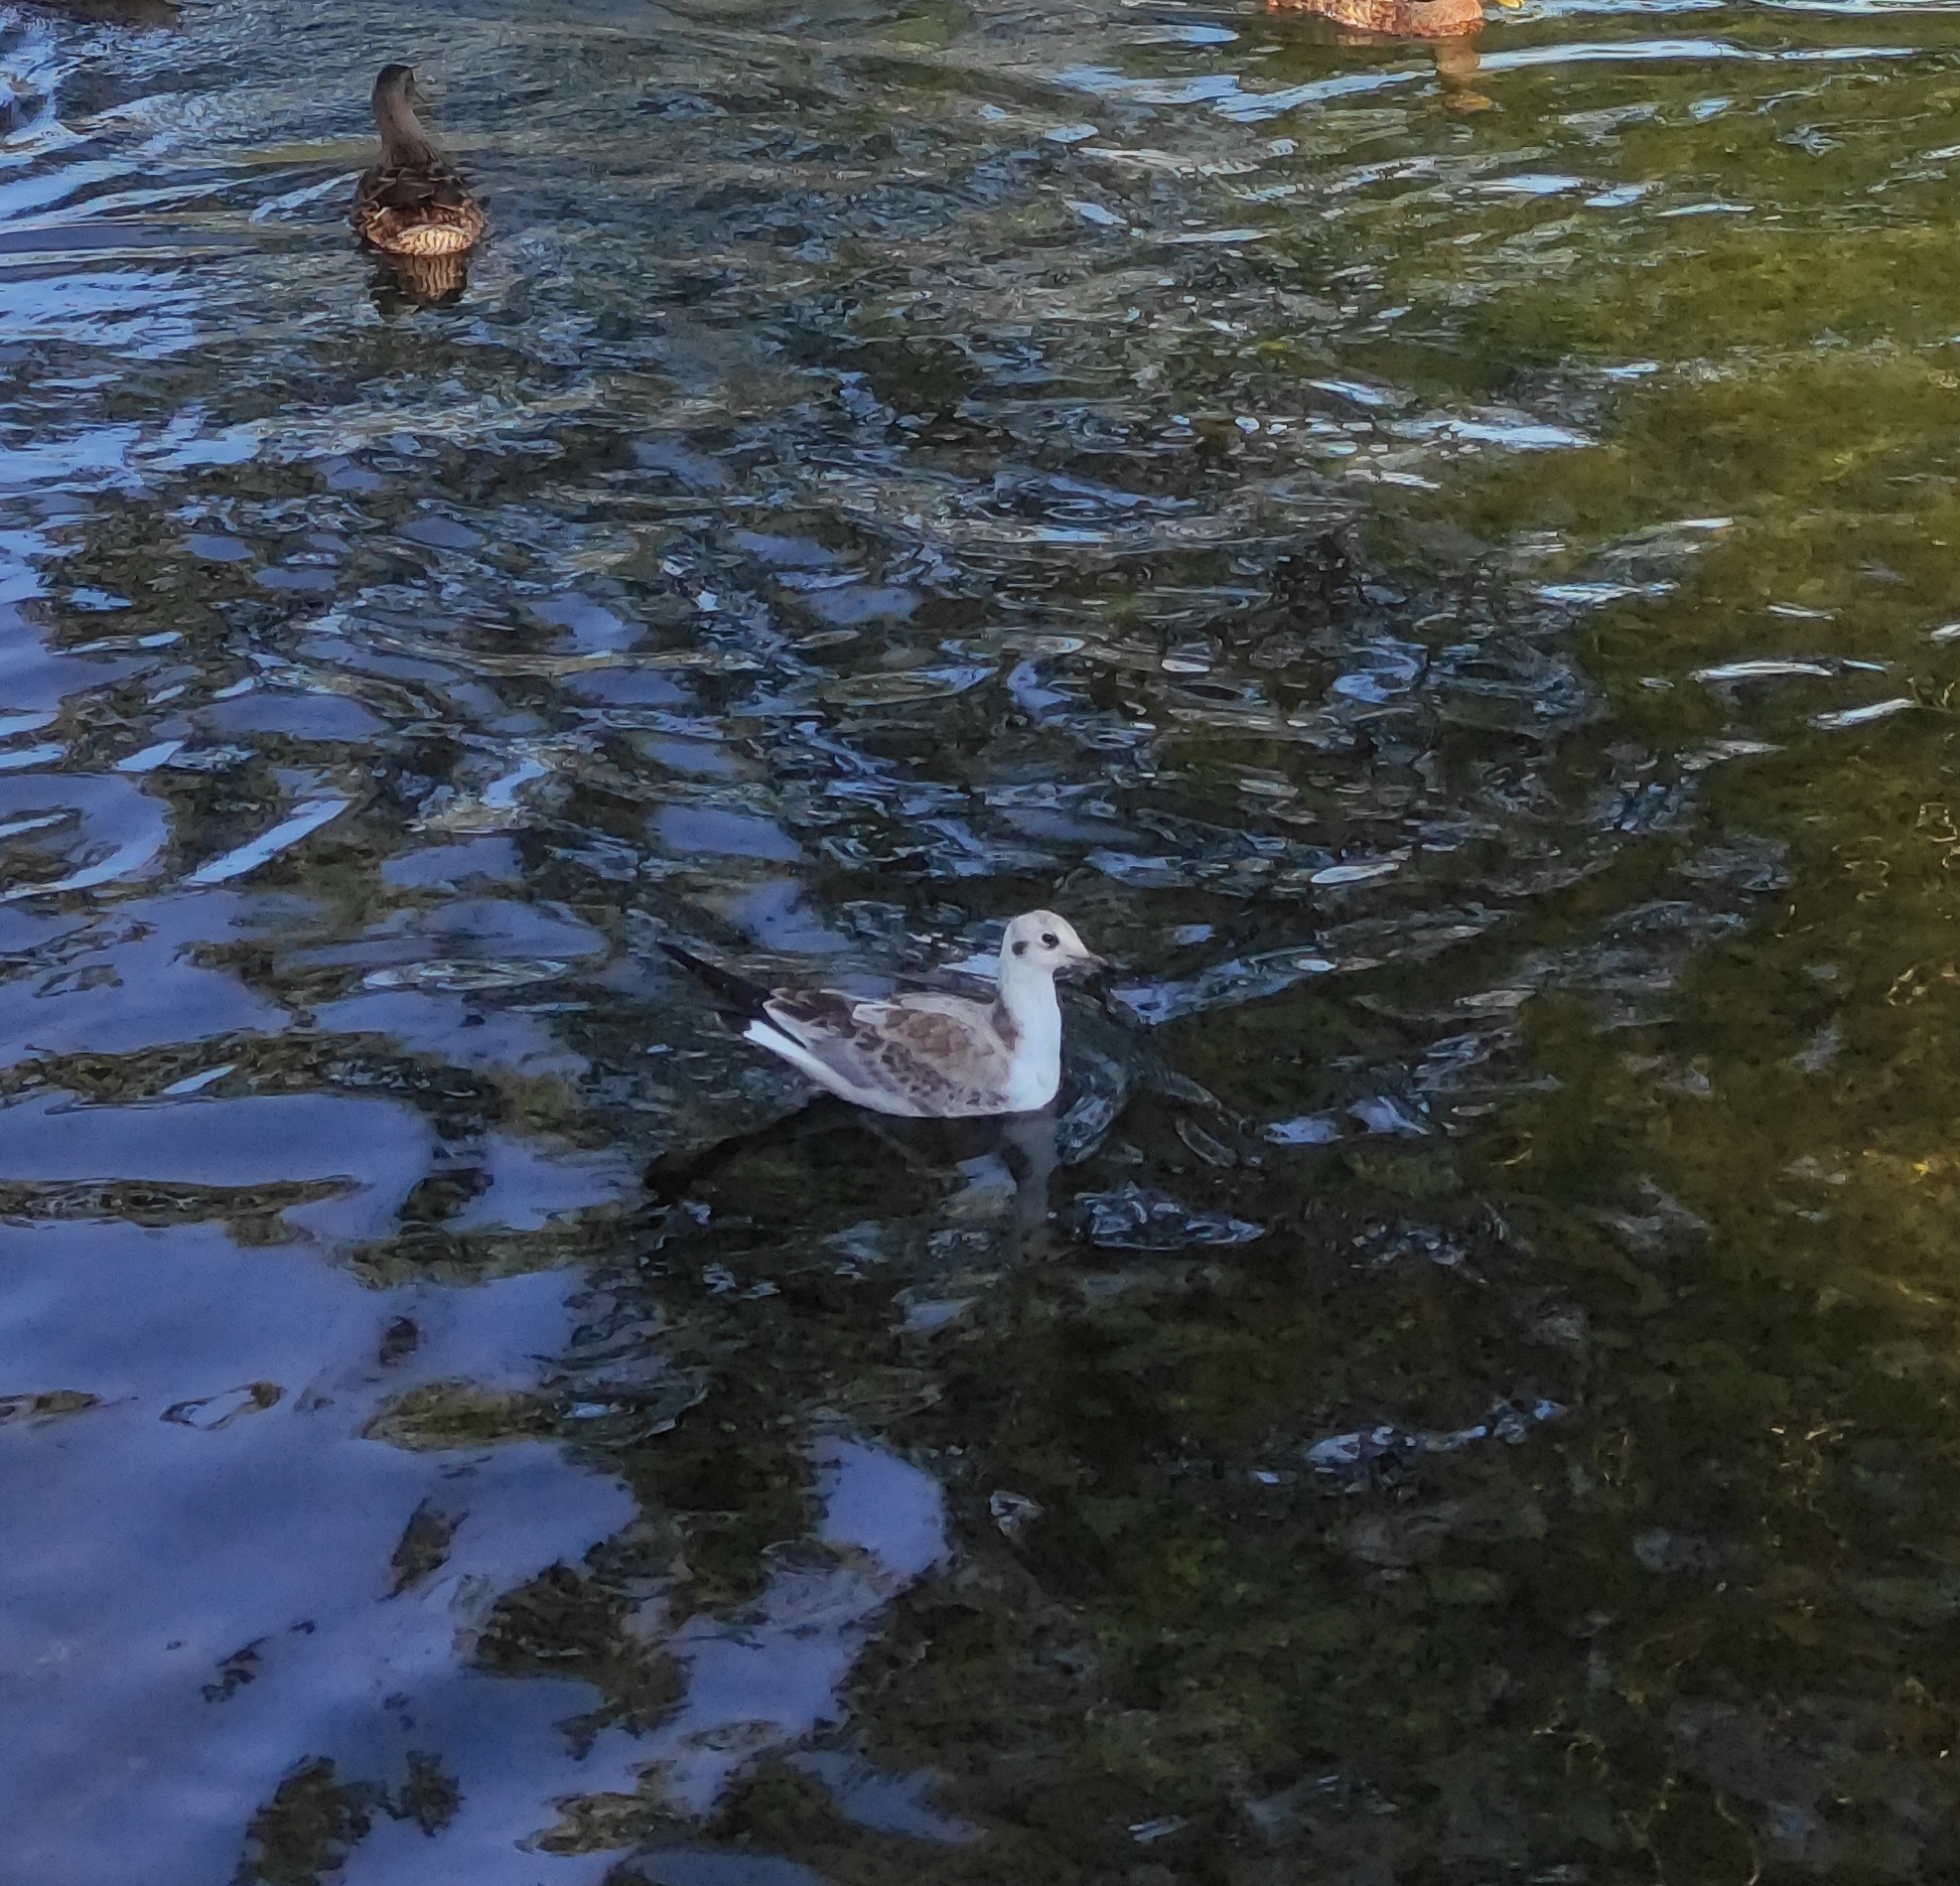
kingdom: Animalia
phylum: Chordata
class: Aves
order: Charadriiformes
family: Laridae
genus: Chroicocephalus
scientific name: Chroicocephalus ridibundus
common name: Black-headed gull
